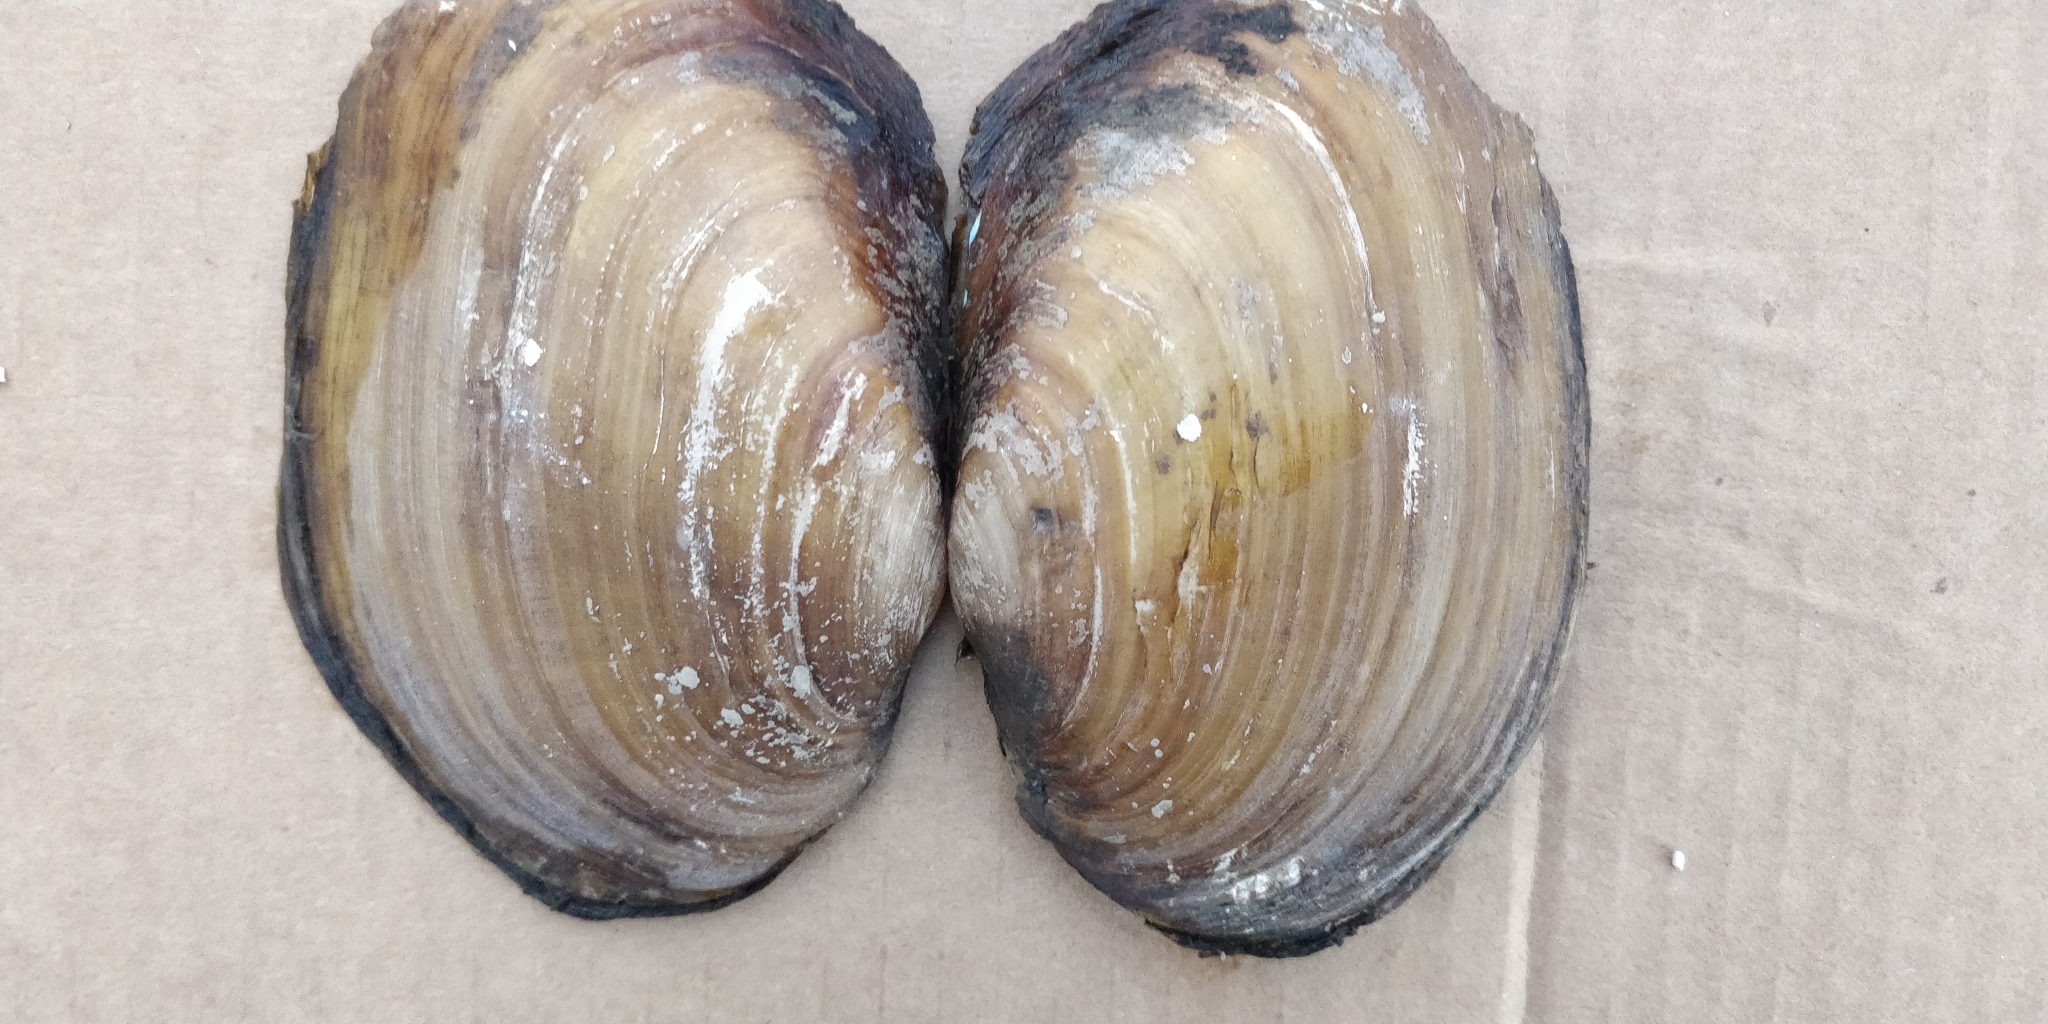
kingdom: Animalia
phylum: Mollusca
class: Bivalvia
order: Unionida
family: Unionidae
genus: Potamilus
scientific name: Potamilus fragilis
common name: Fragile papershell
